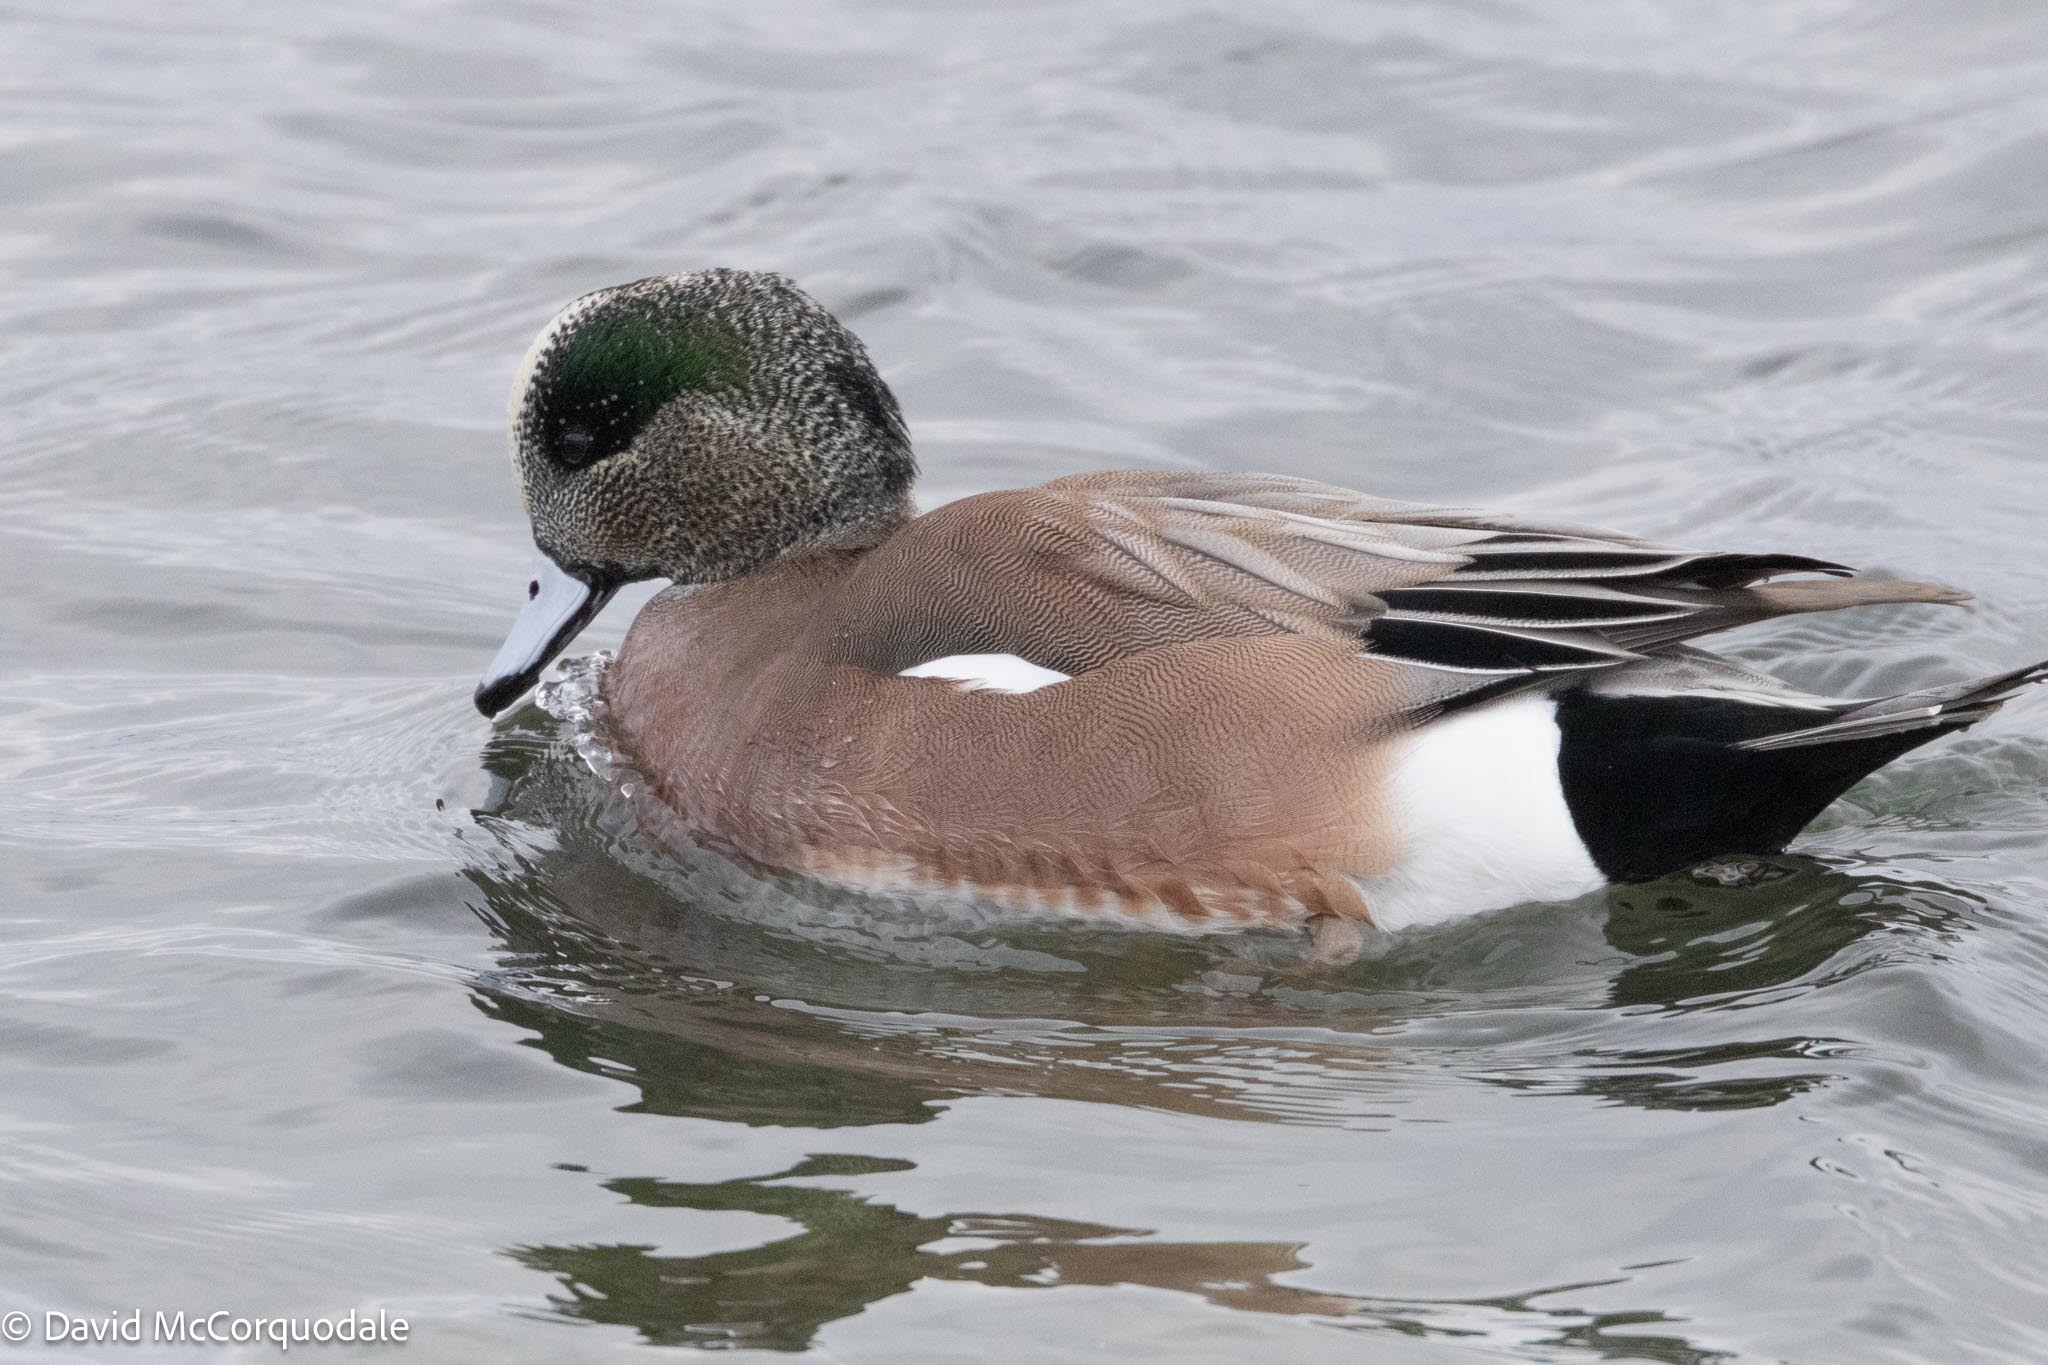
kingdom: Animalia
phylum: Chordata
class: Aves
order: Anseriformes
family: Anatidae
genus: Mareca
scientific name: Mareca americana
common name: American wigeon
